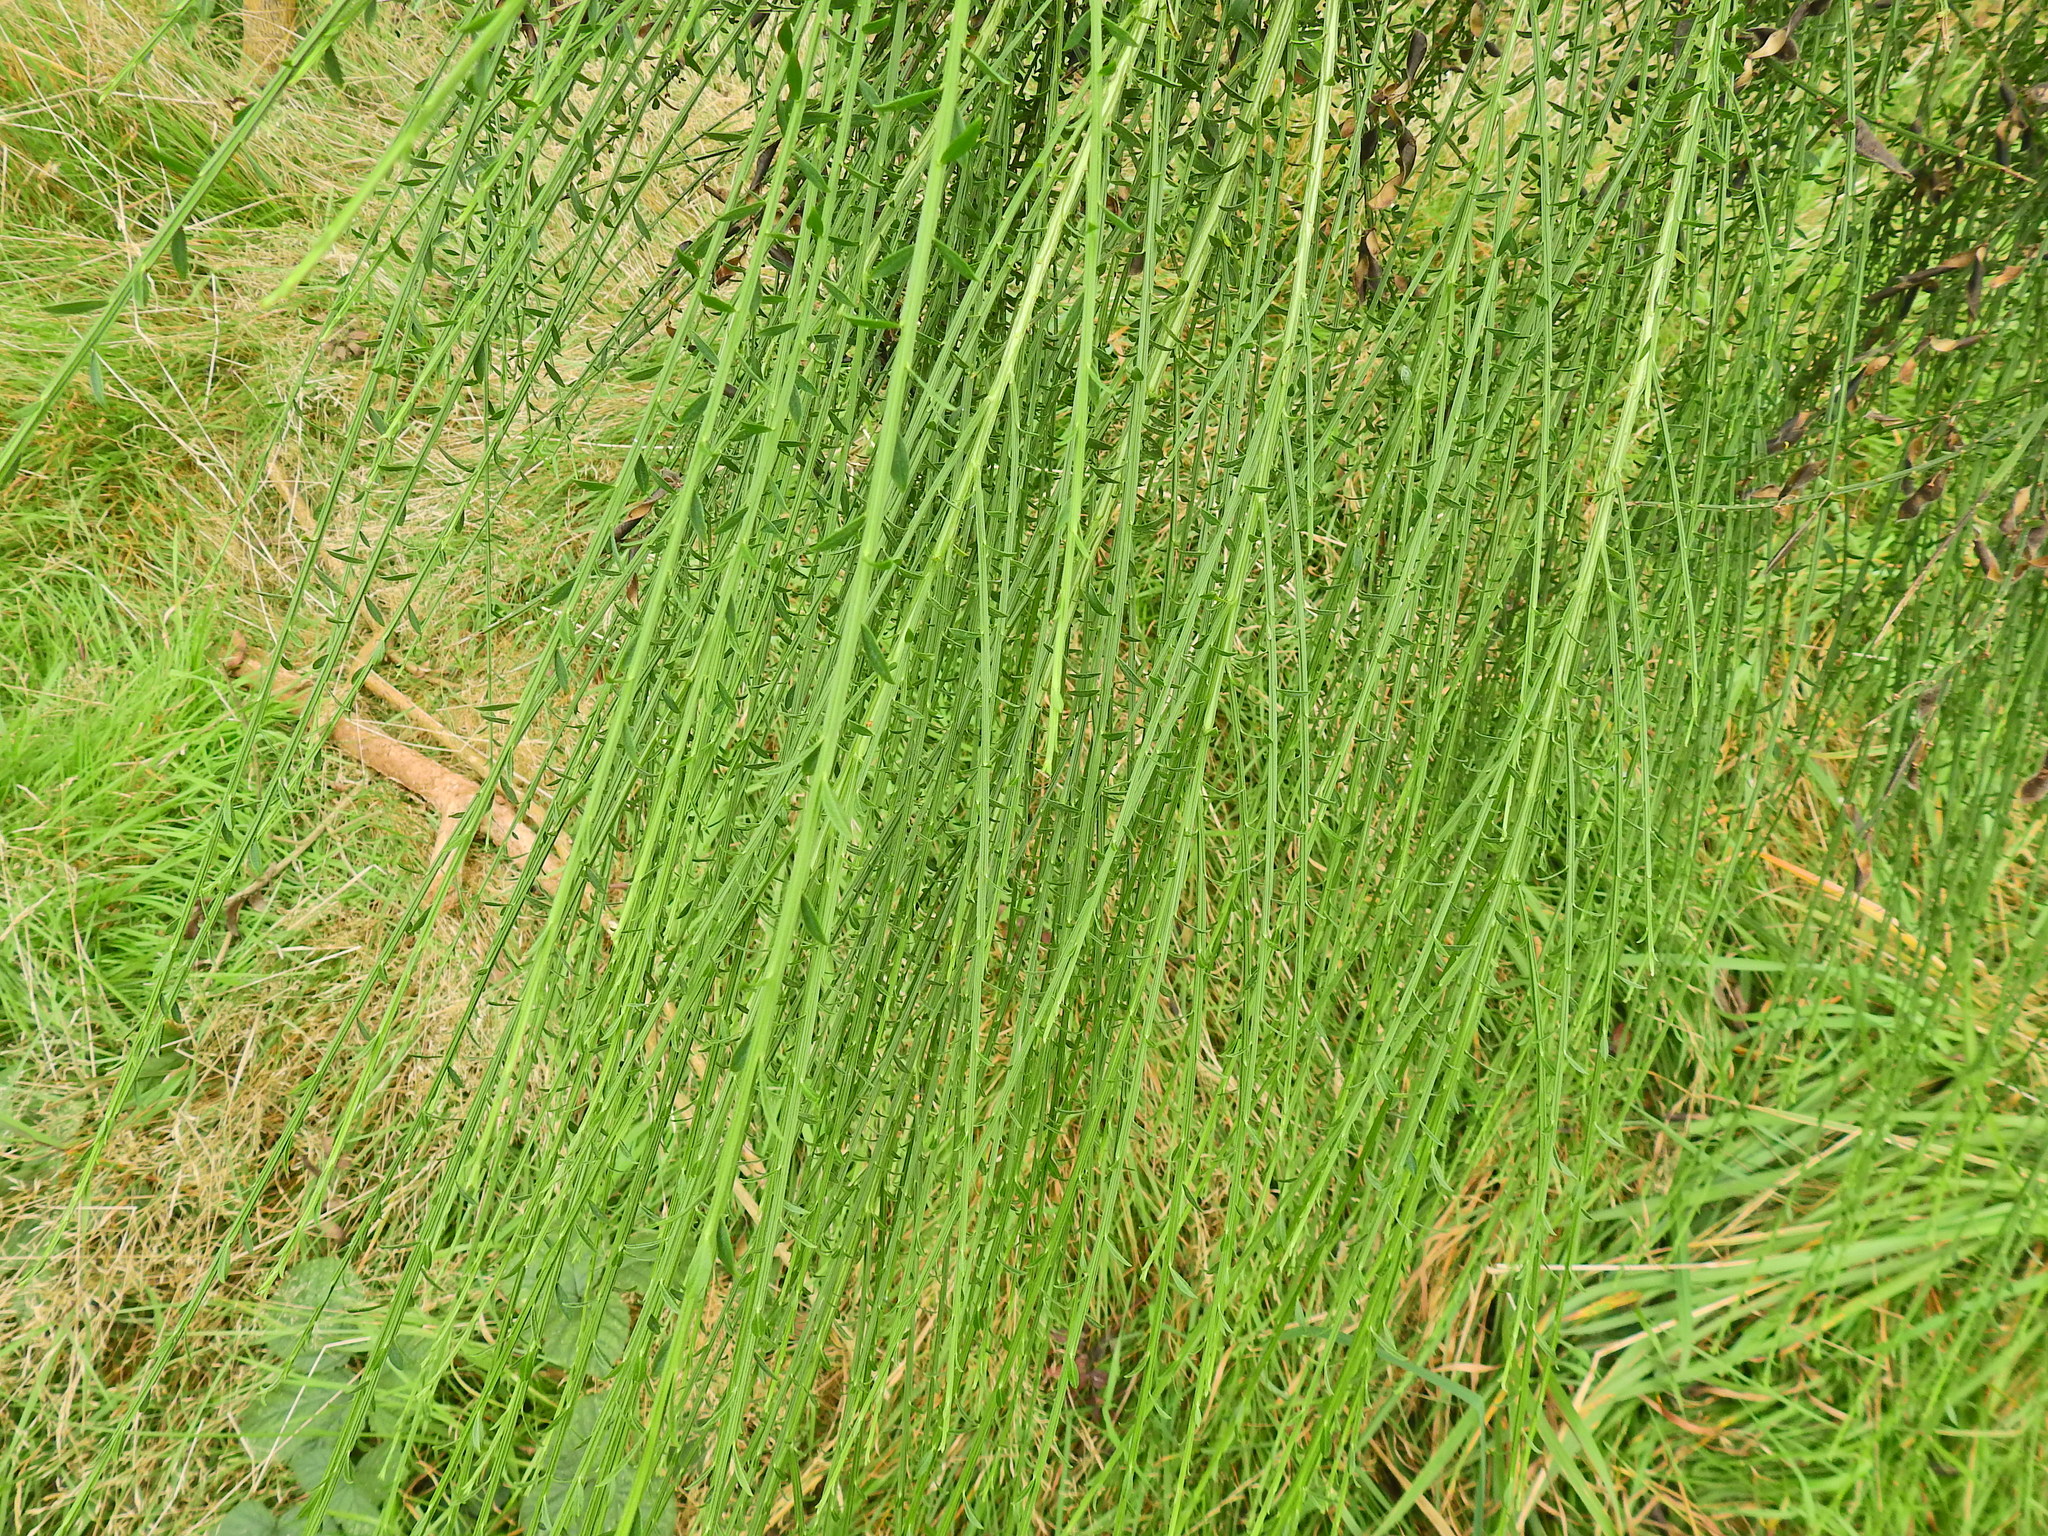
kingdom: Plantae
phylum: Tracheophyta
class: Magnoliopsida
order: Fabales
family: Fabaceae
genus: Cytisus
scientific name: Cytisus scoparius
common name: Scotch broom
